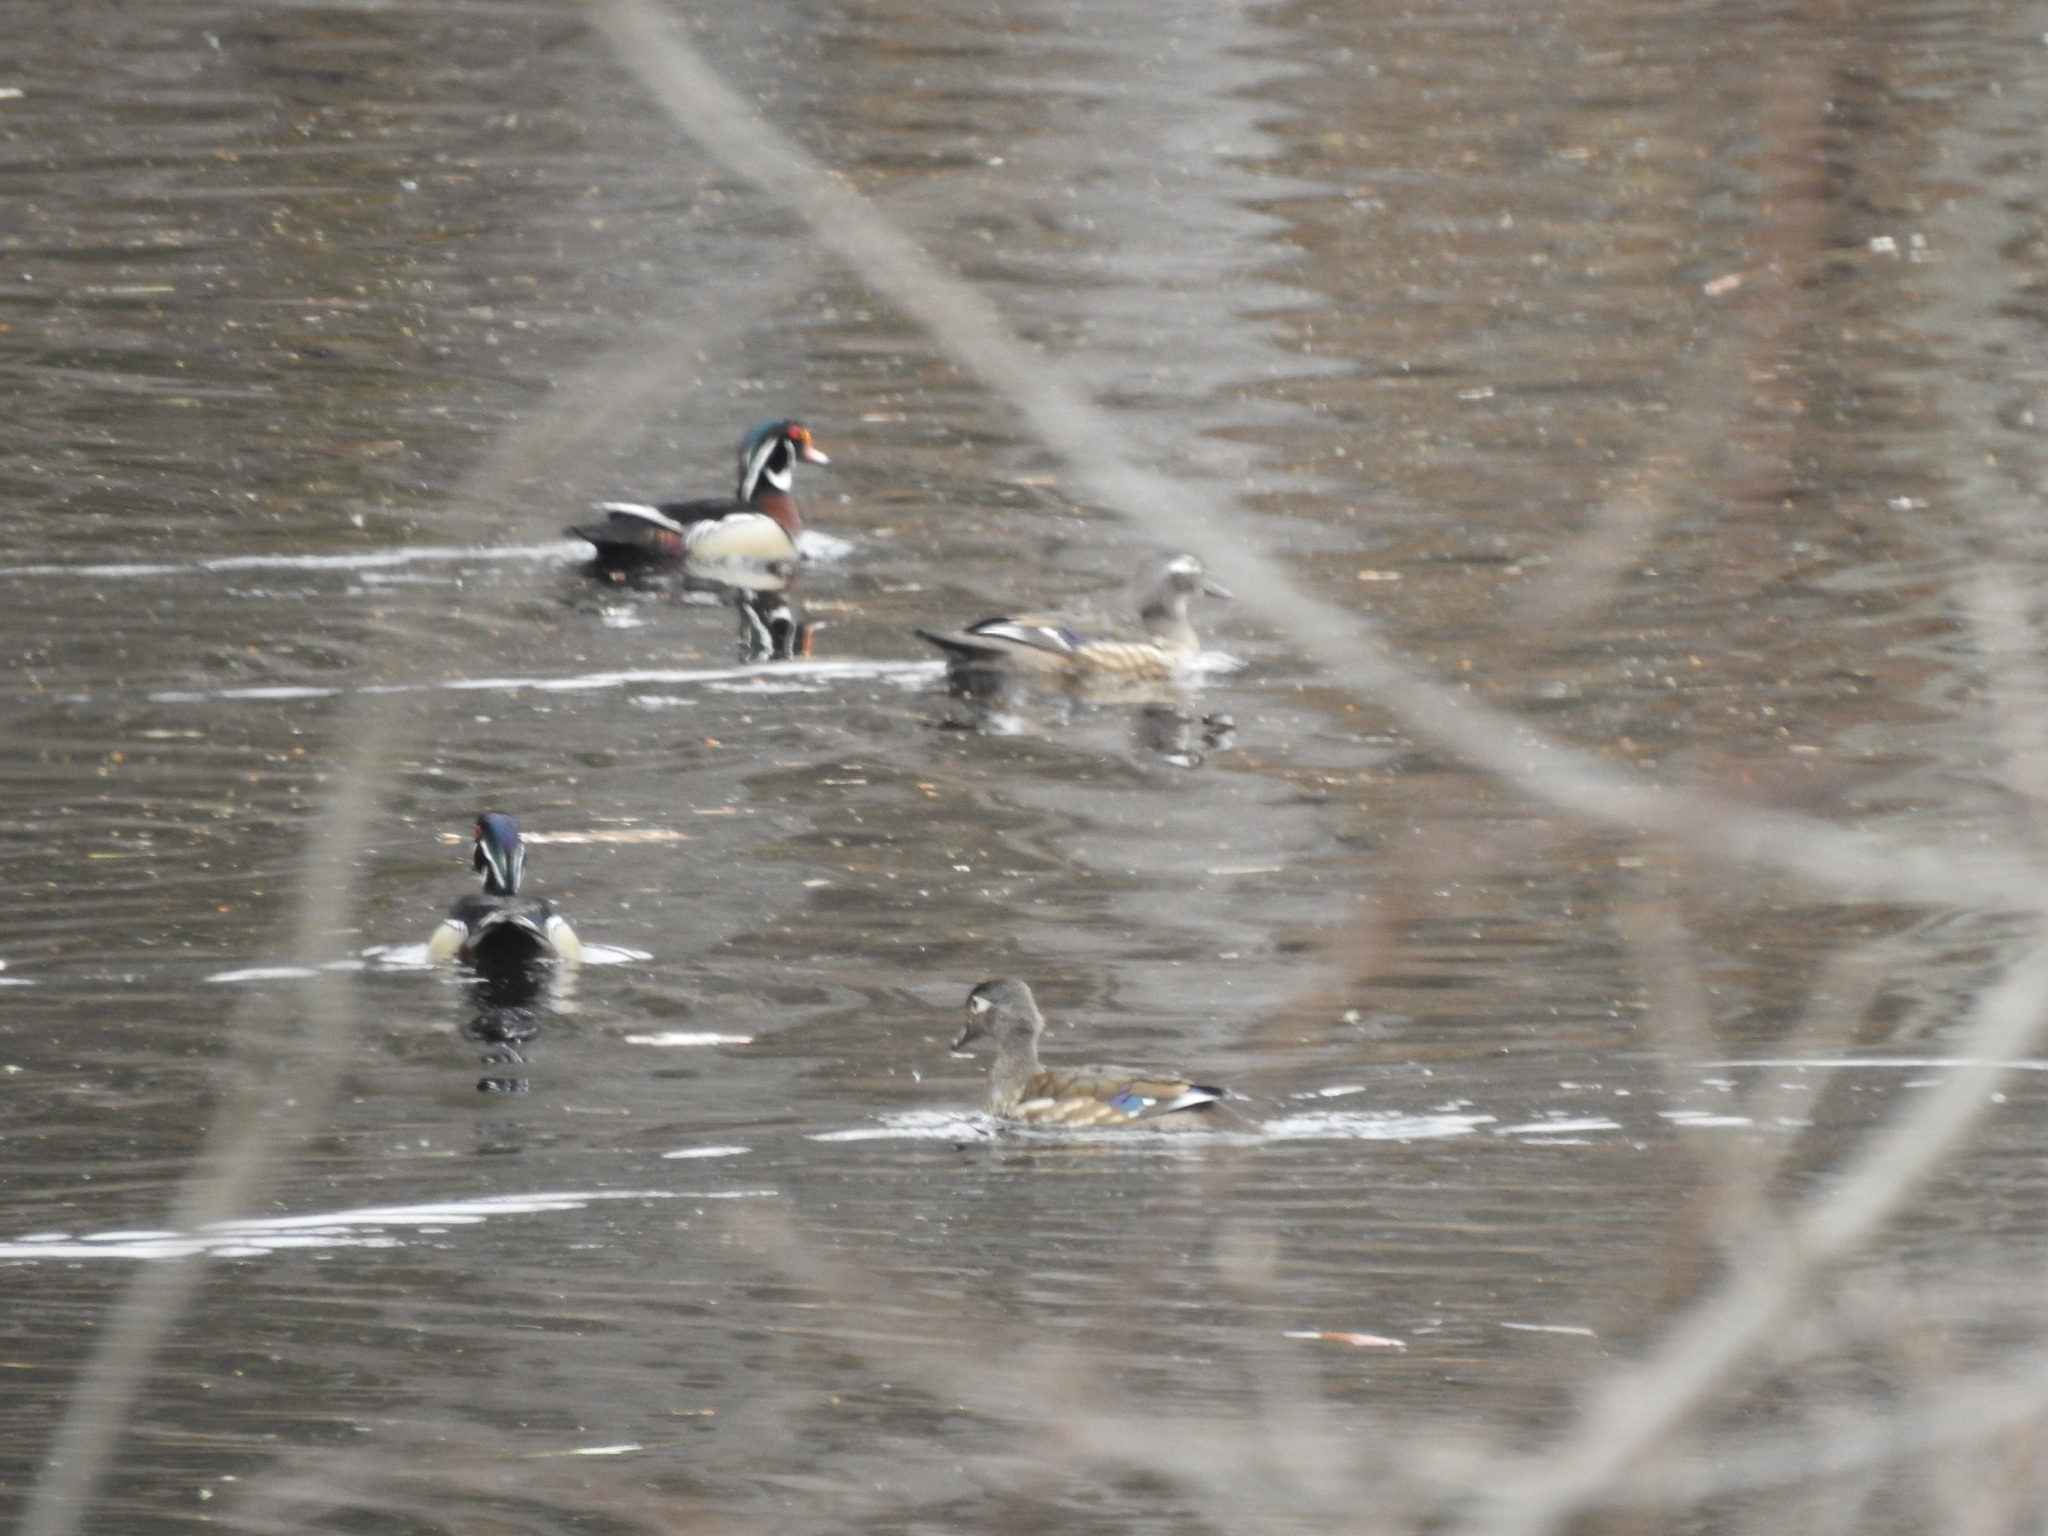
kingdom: Animalia
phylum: Chordata
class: Aves
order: Anseriformes
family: Anatidae
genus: Aix
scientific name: Aix sponsa
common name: Wood duck
